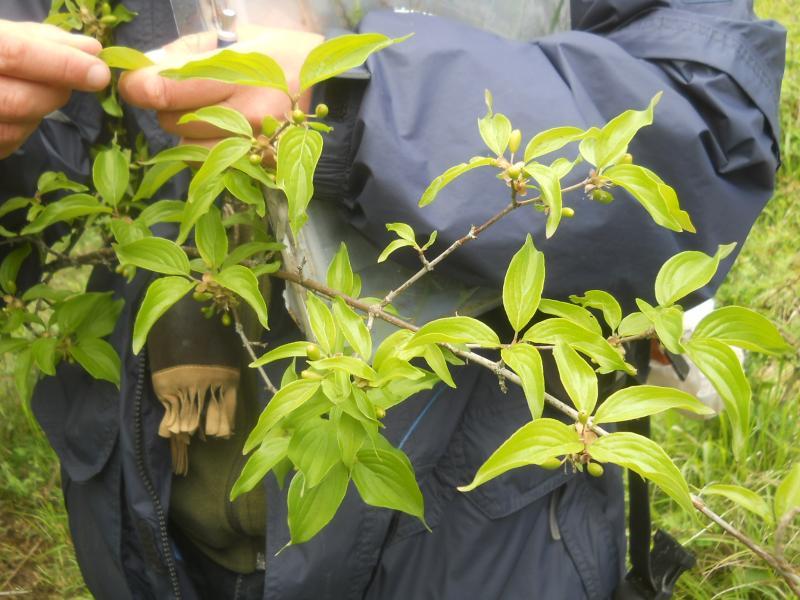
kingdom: Plantae
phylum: Tracheophyta
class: Magnoliopsida
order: Cornales
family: Cornaceae
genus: Cornus
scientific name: Cornus mas
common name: Cornelian-cherry
